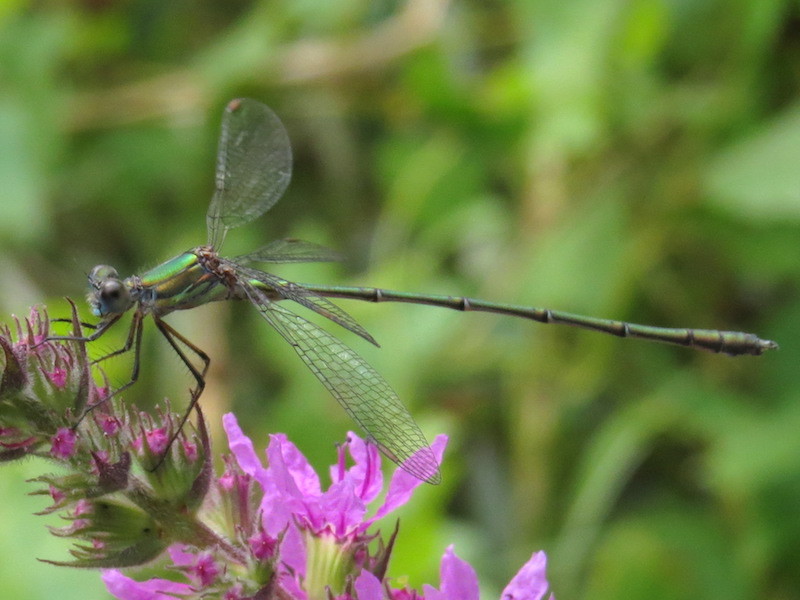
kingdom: Animalia
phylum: Arthropoda
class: Insecta
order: Odonata
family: Lestidae
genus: Chalcolestes
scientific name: Chalcolestes viridis
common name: Green emerald damselfly
